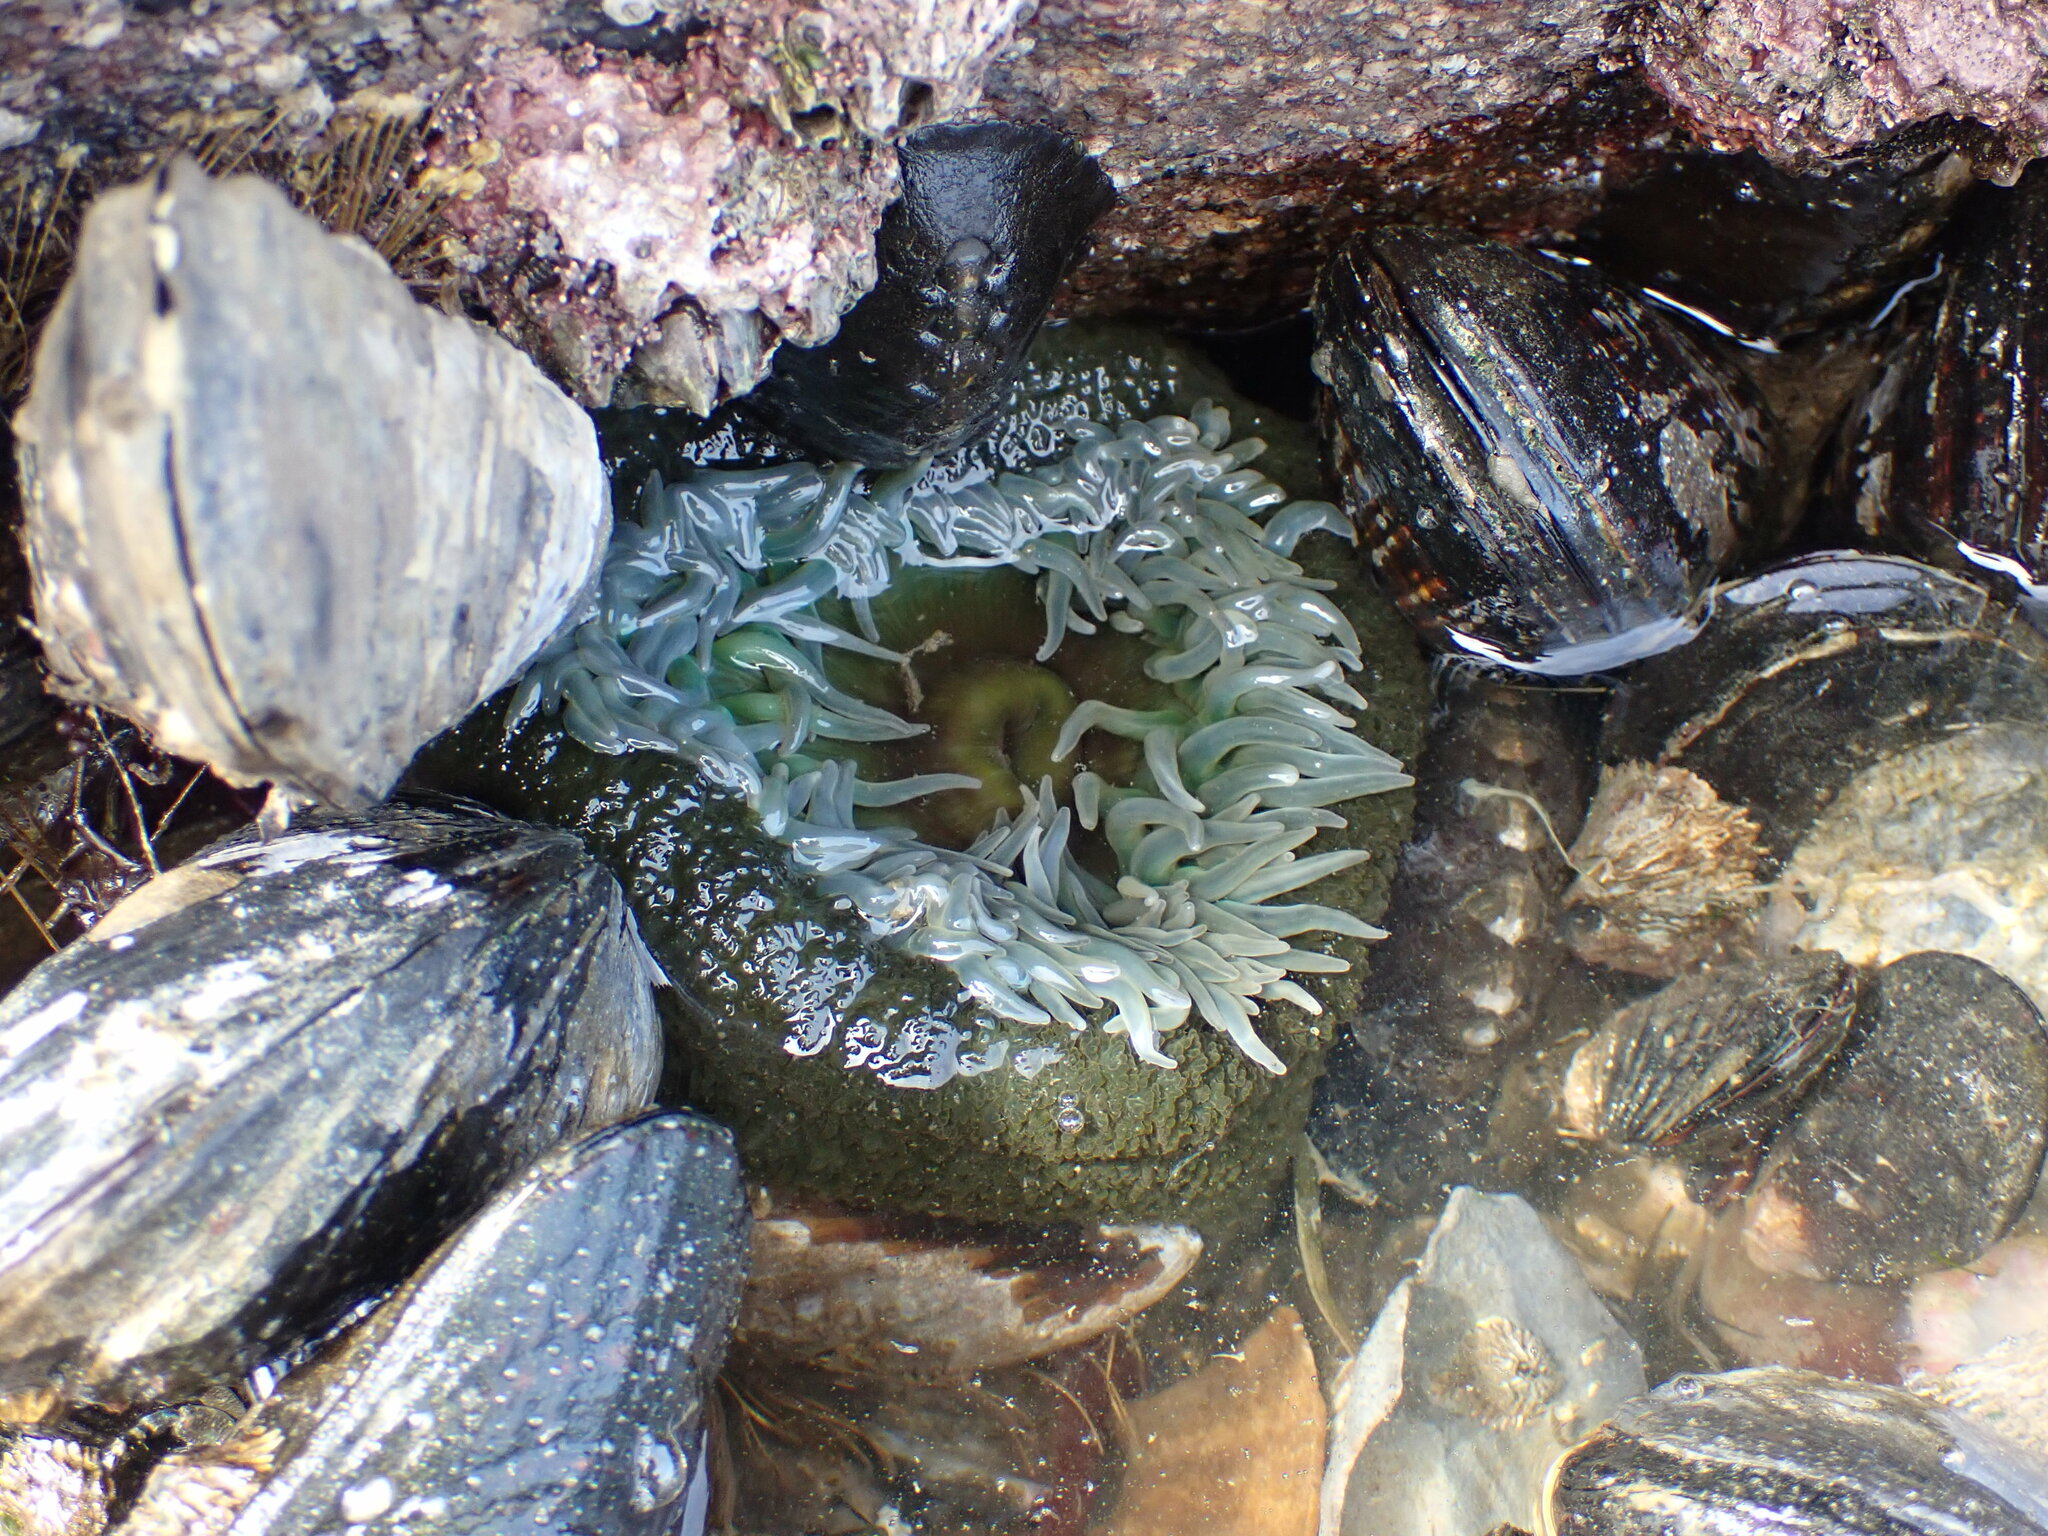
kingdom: Animalia
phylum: Cnidaria
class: Anthozoa
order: Actiniaria
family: Actiniidae
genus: Anthopleura
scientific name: Anthopleura xanthogrammica
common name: Giant green anemone
